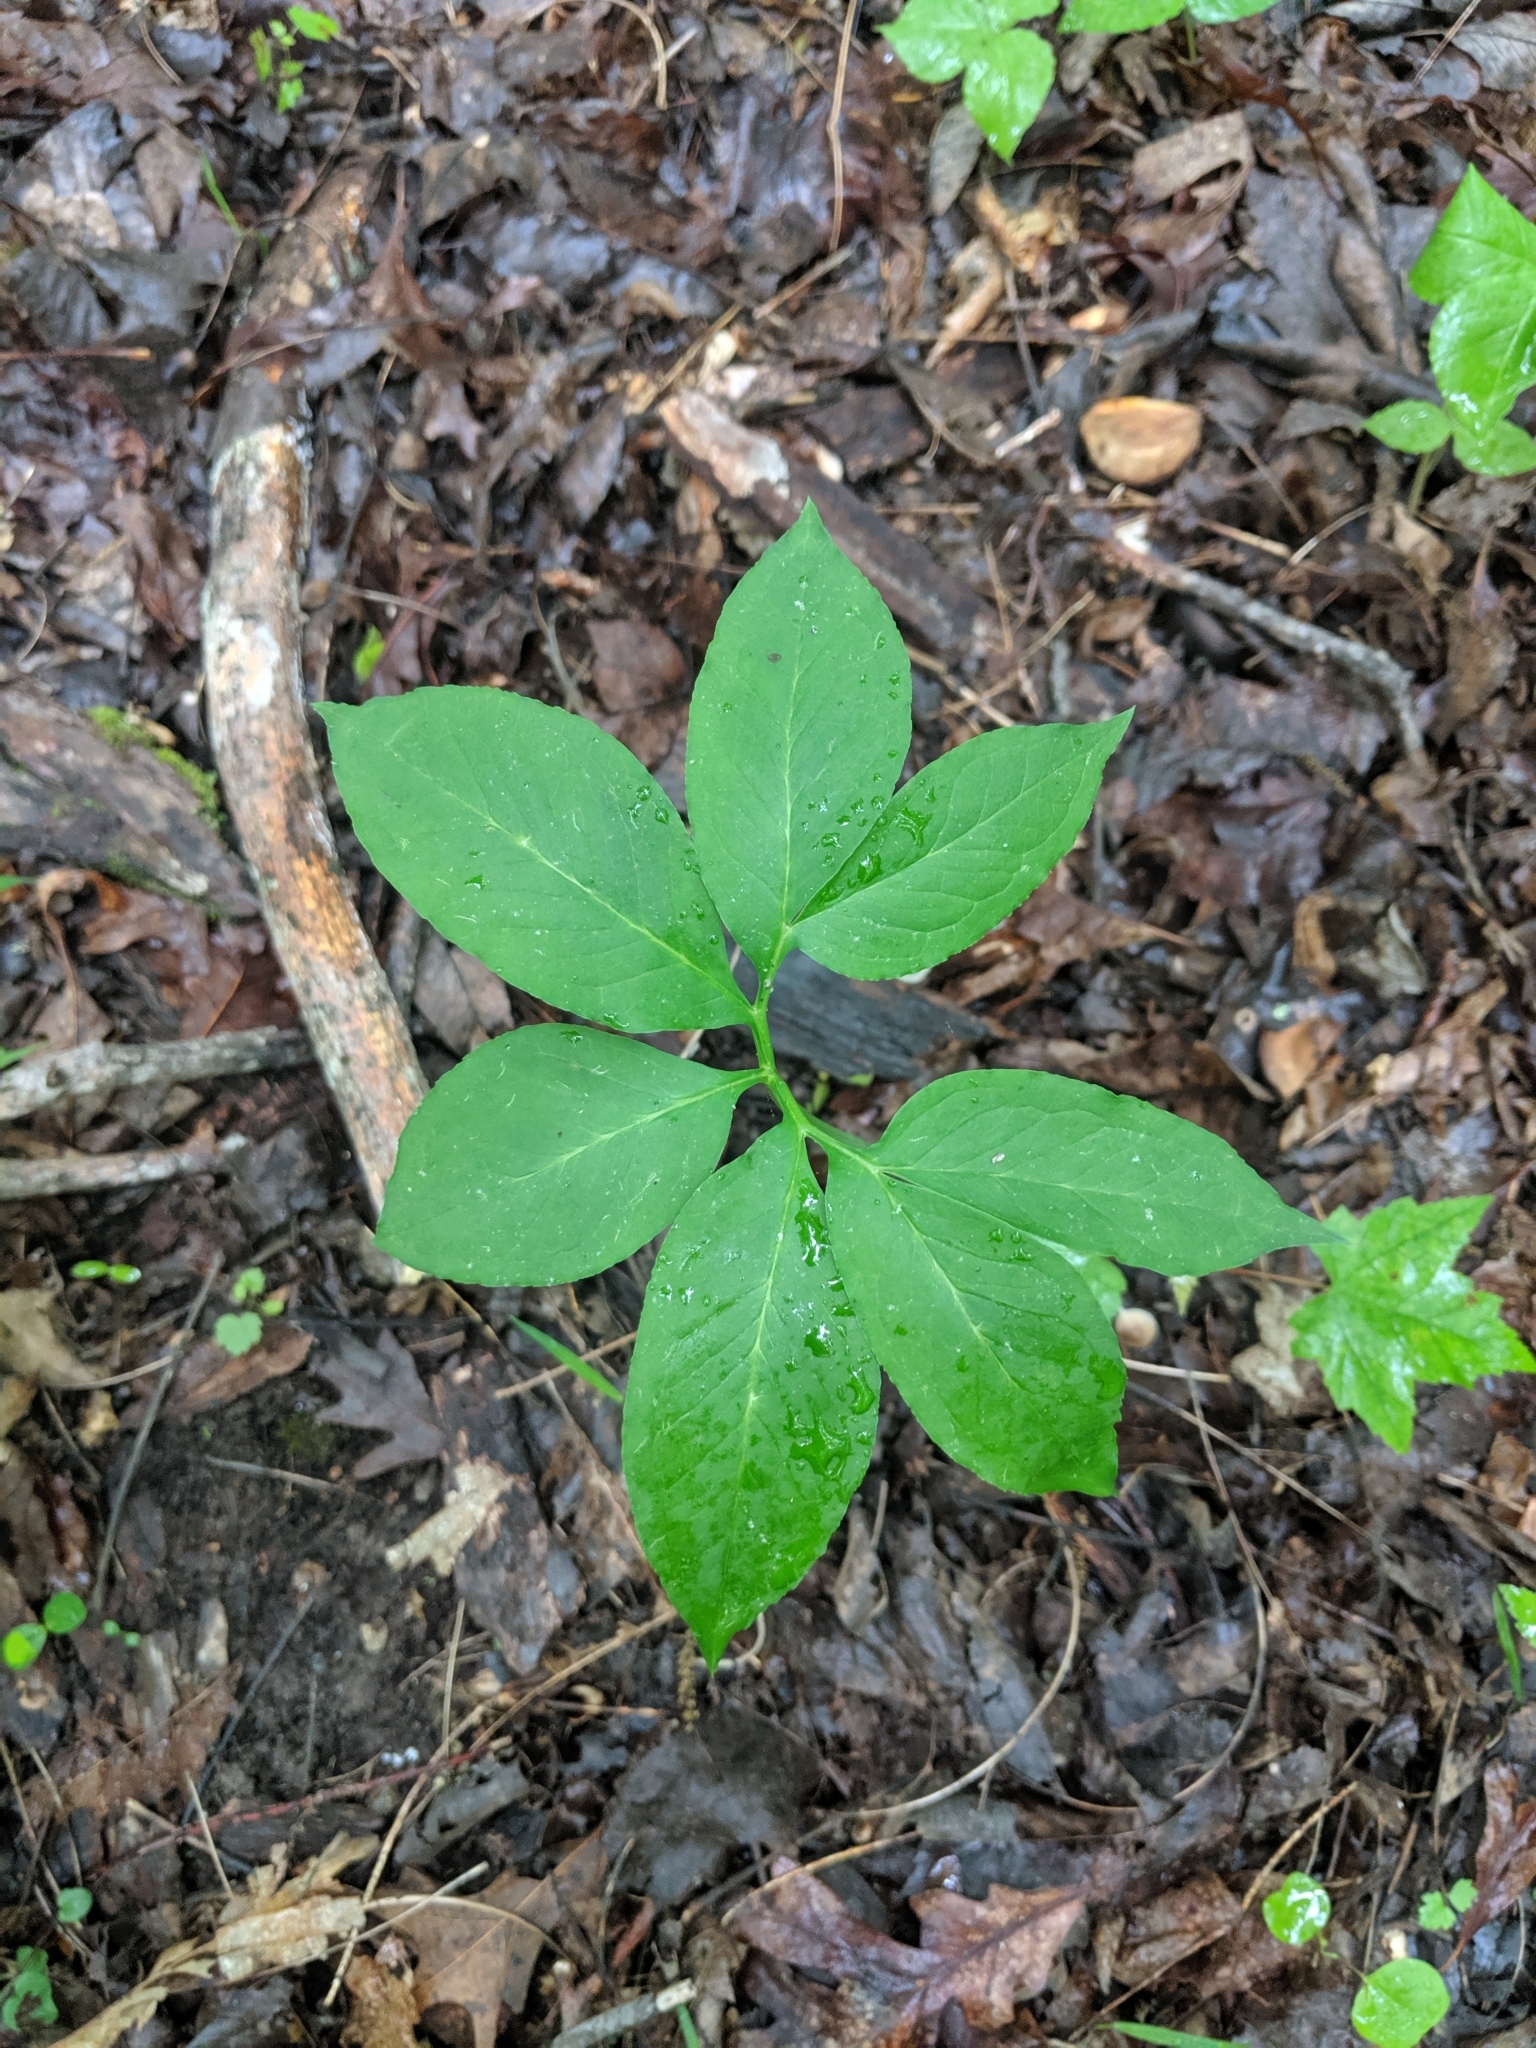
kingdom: Plantae
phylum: Tracheophyta
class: Liliopsida
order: Alismatales
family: Araceae
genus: Arisaema
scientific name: Arisaema dracontium
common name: Dragon-arum
